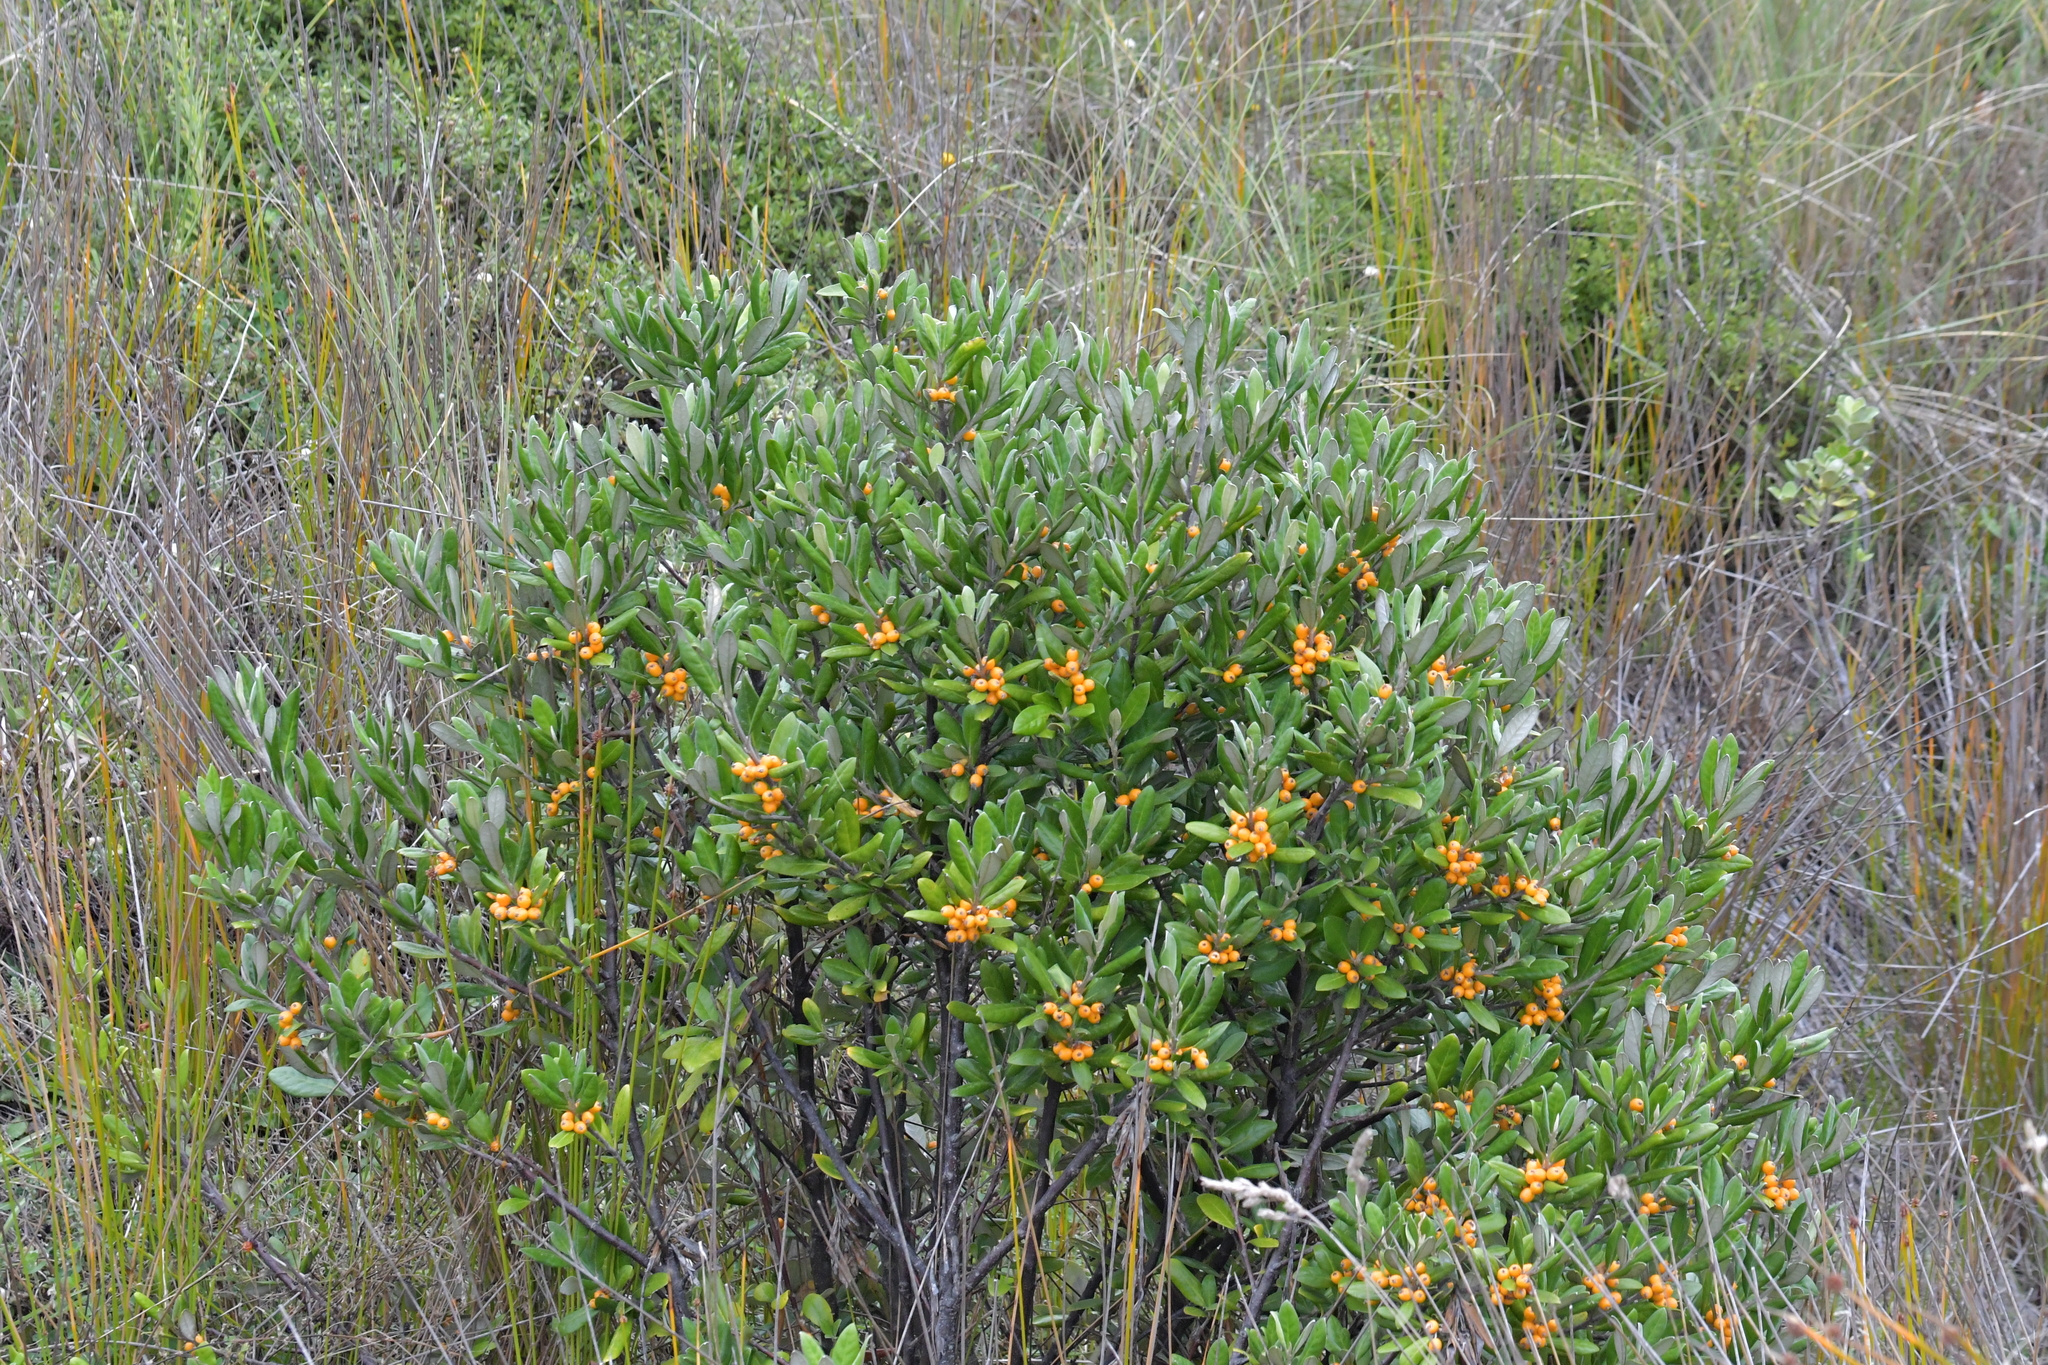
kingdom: Plantae
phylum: Tracheophyta
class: Magnoliopsida
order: Asterales
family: Argophyllaceae
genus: Corokia
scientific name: Corokia macrocarpa
